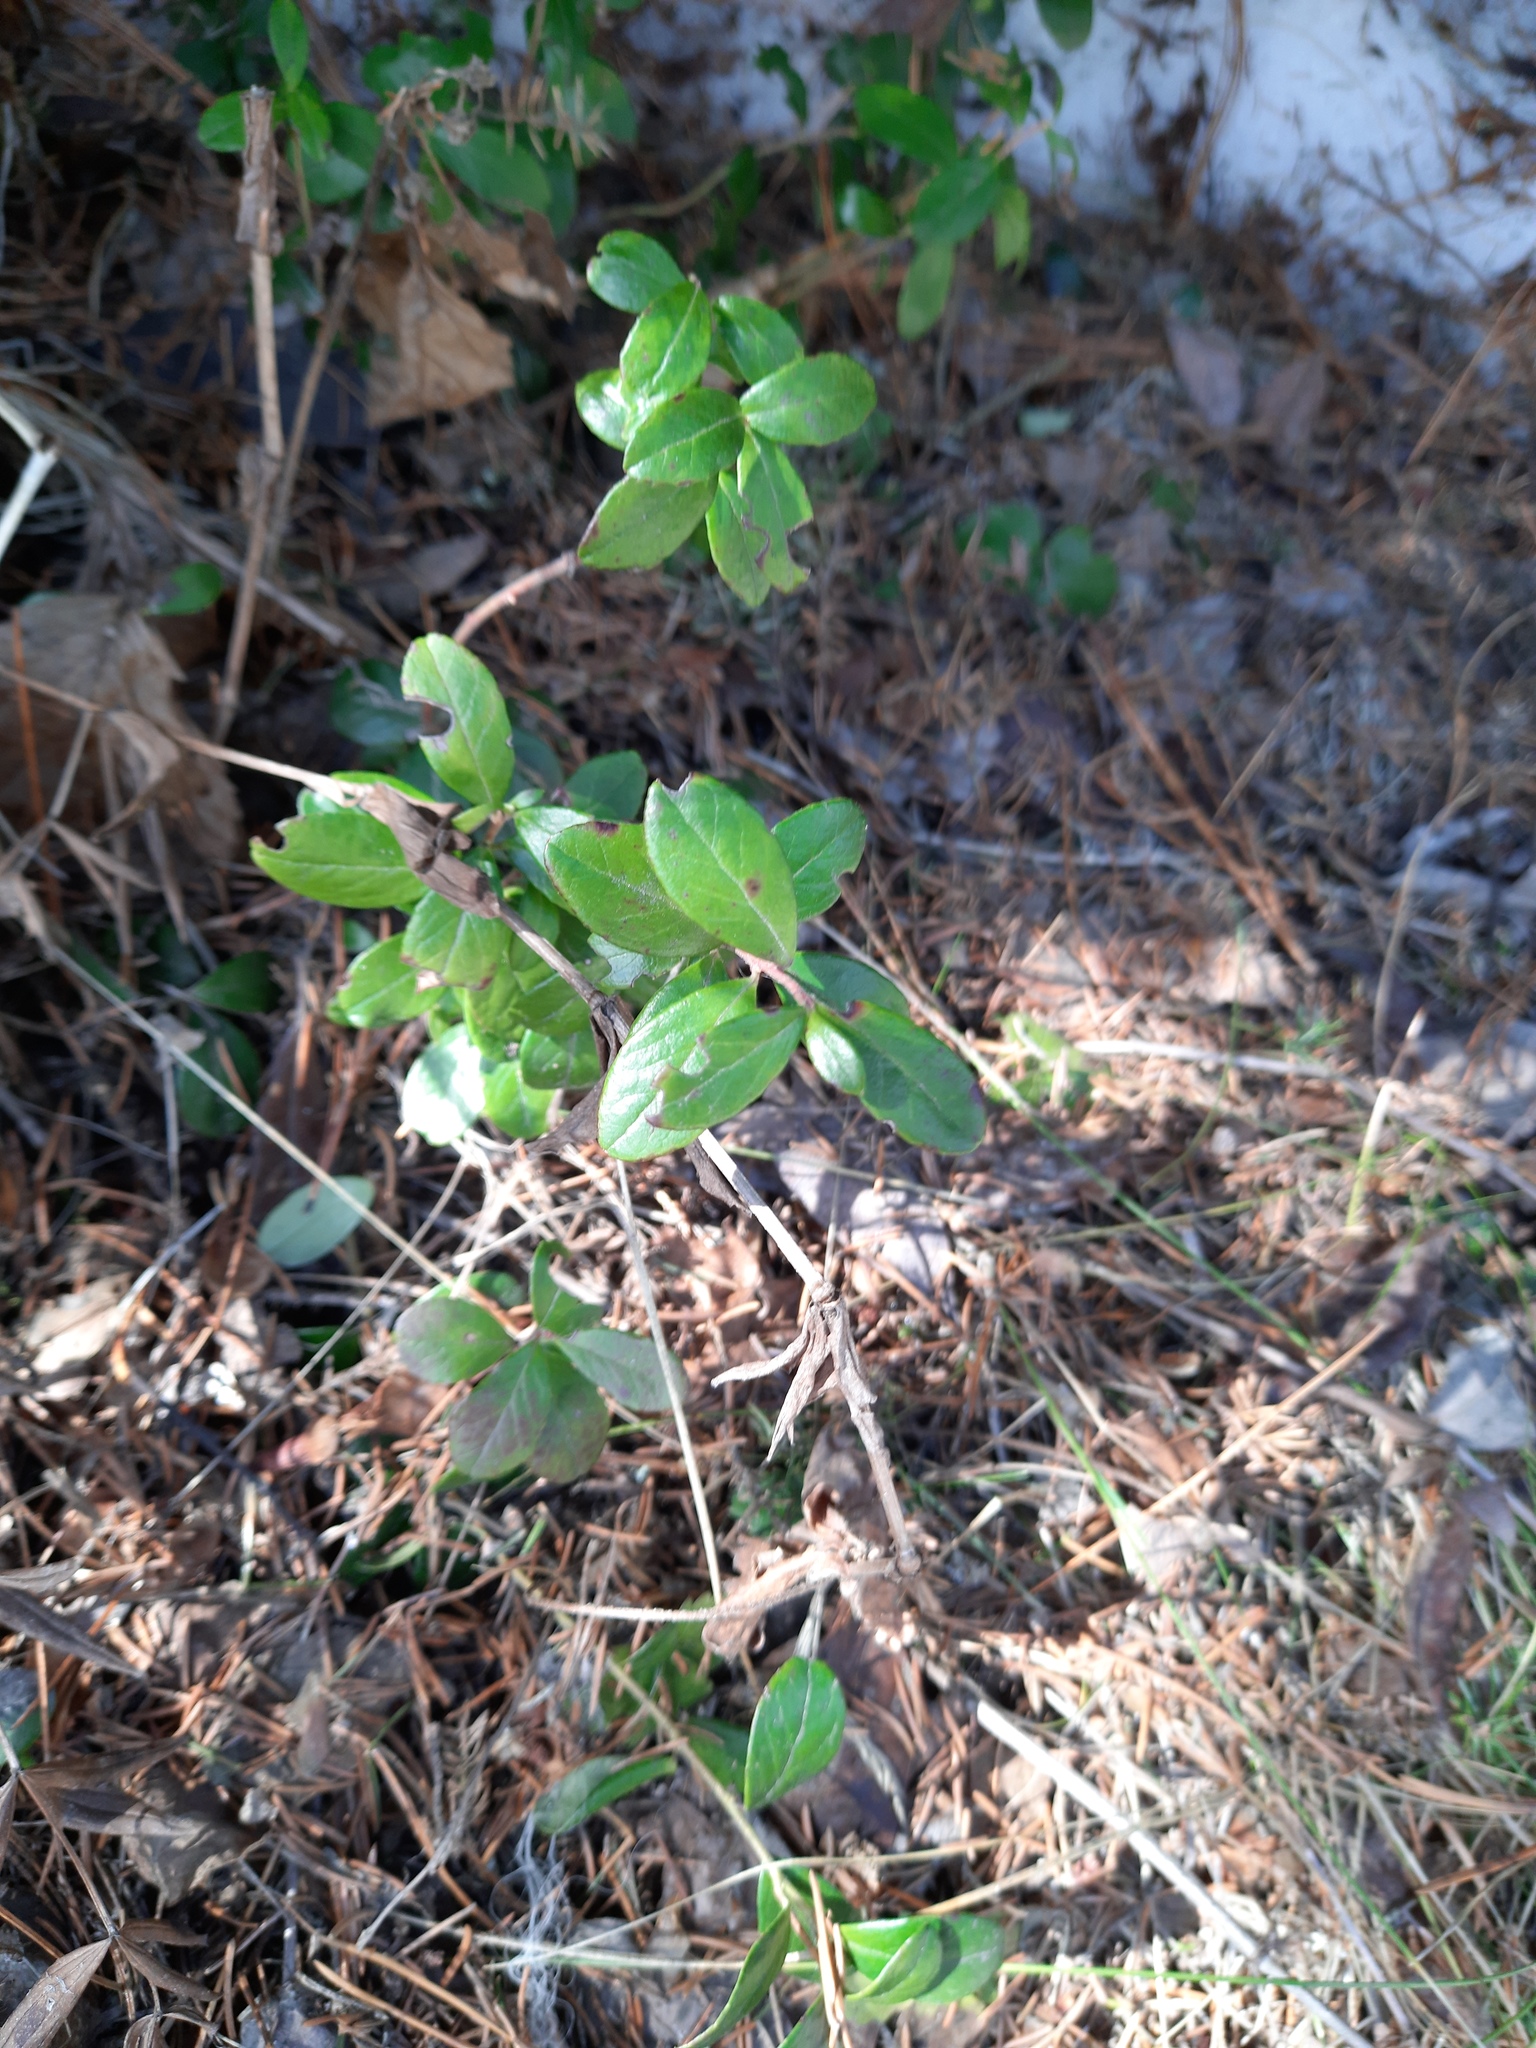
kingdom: Plantae
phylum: Tracheophyta
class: Magnoliopsida
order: Ericales
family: Ericaceae
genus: Vaccinium
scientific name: Vaccinium vitis-idaea
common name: Cowberry
